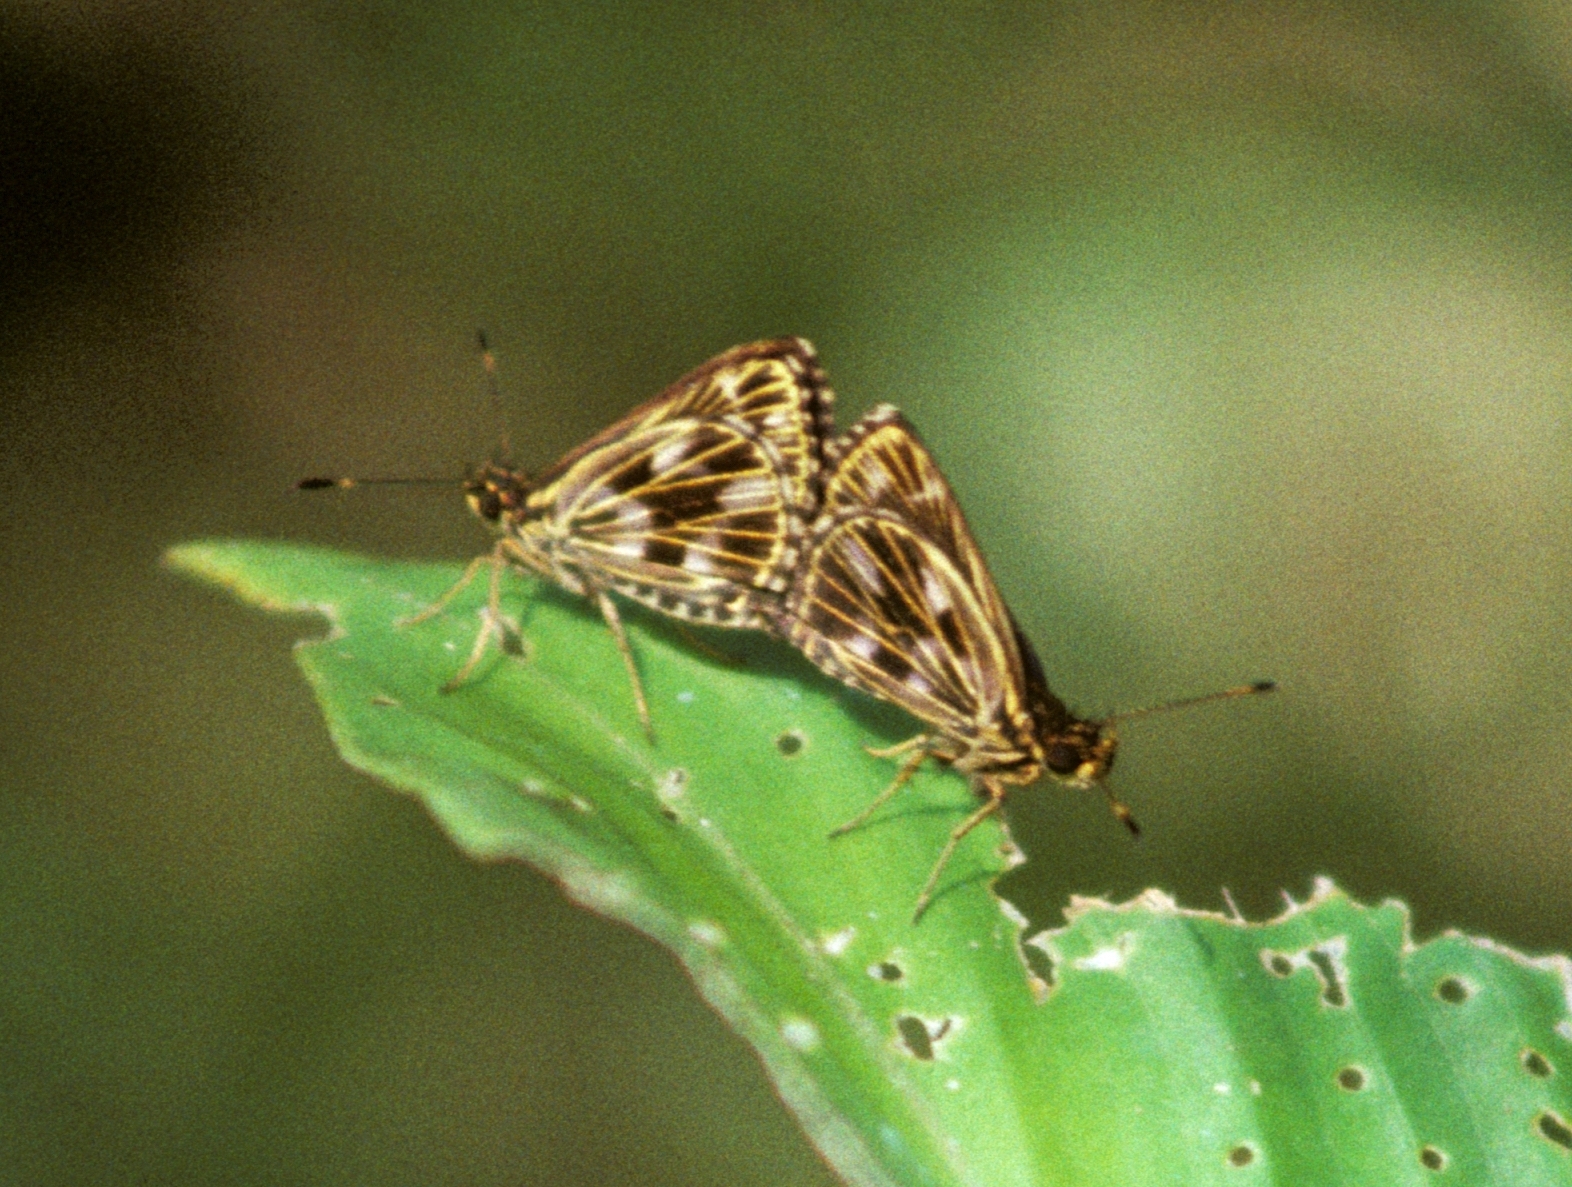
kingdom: Animalia
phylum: Arthropoda
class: Insecta
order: Lepidoptera
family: Hesperiidae
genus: Virga
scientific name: Virga austrinus
